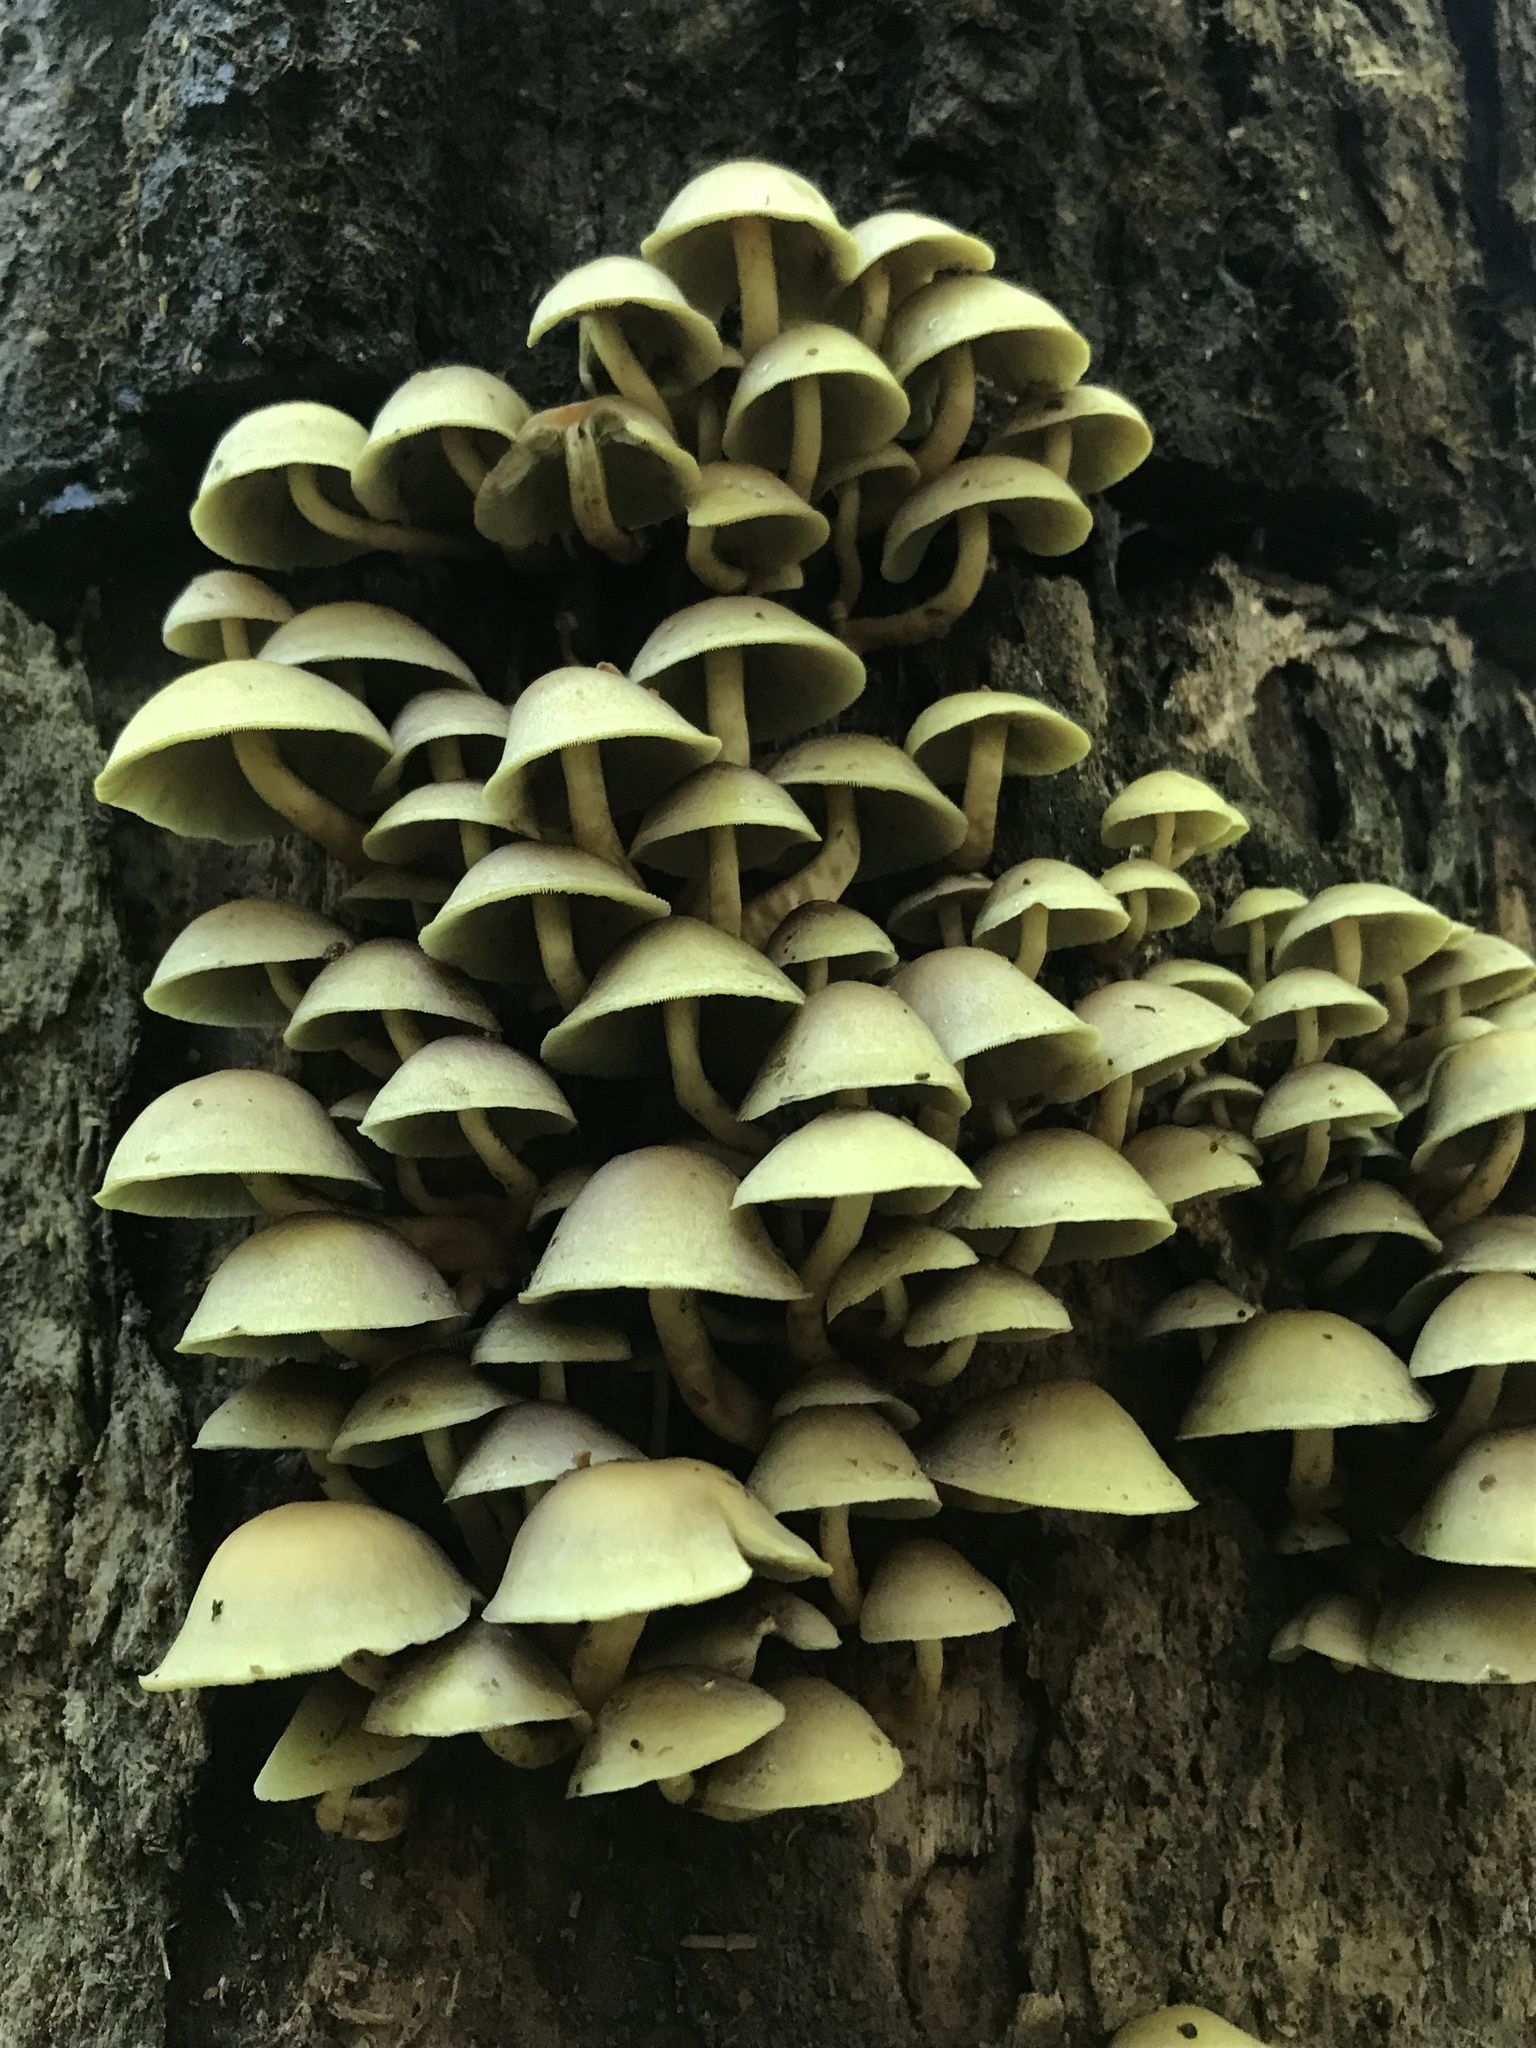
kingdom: Fungi
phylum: Basidiomycota
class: Agaricomycetes
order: Agaricales
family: Strophariaceae
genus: Hypholoma
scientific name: Hypholoma fasciculare
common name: Sulphur tuft
